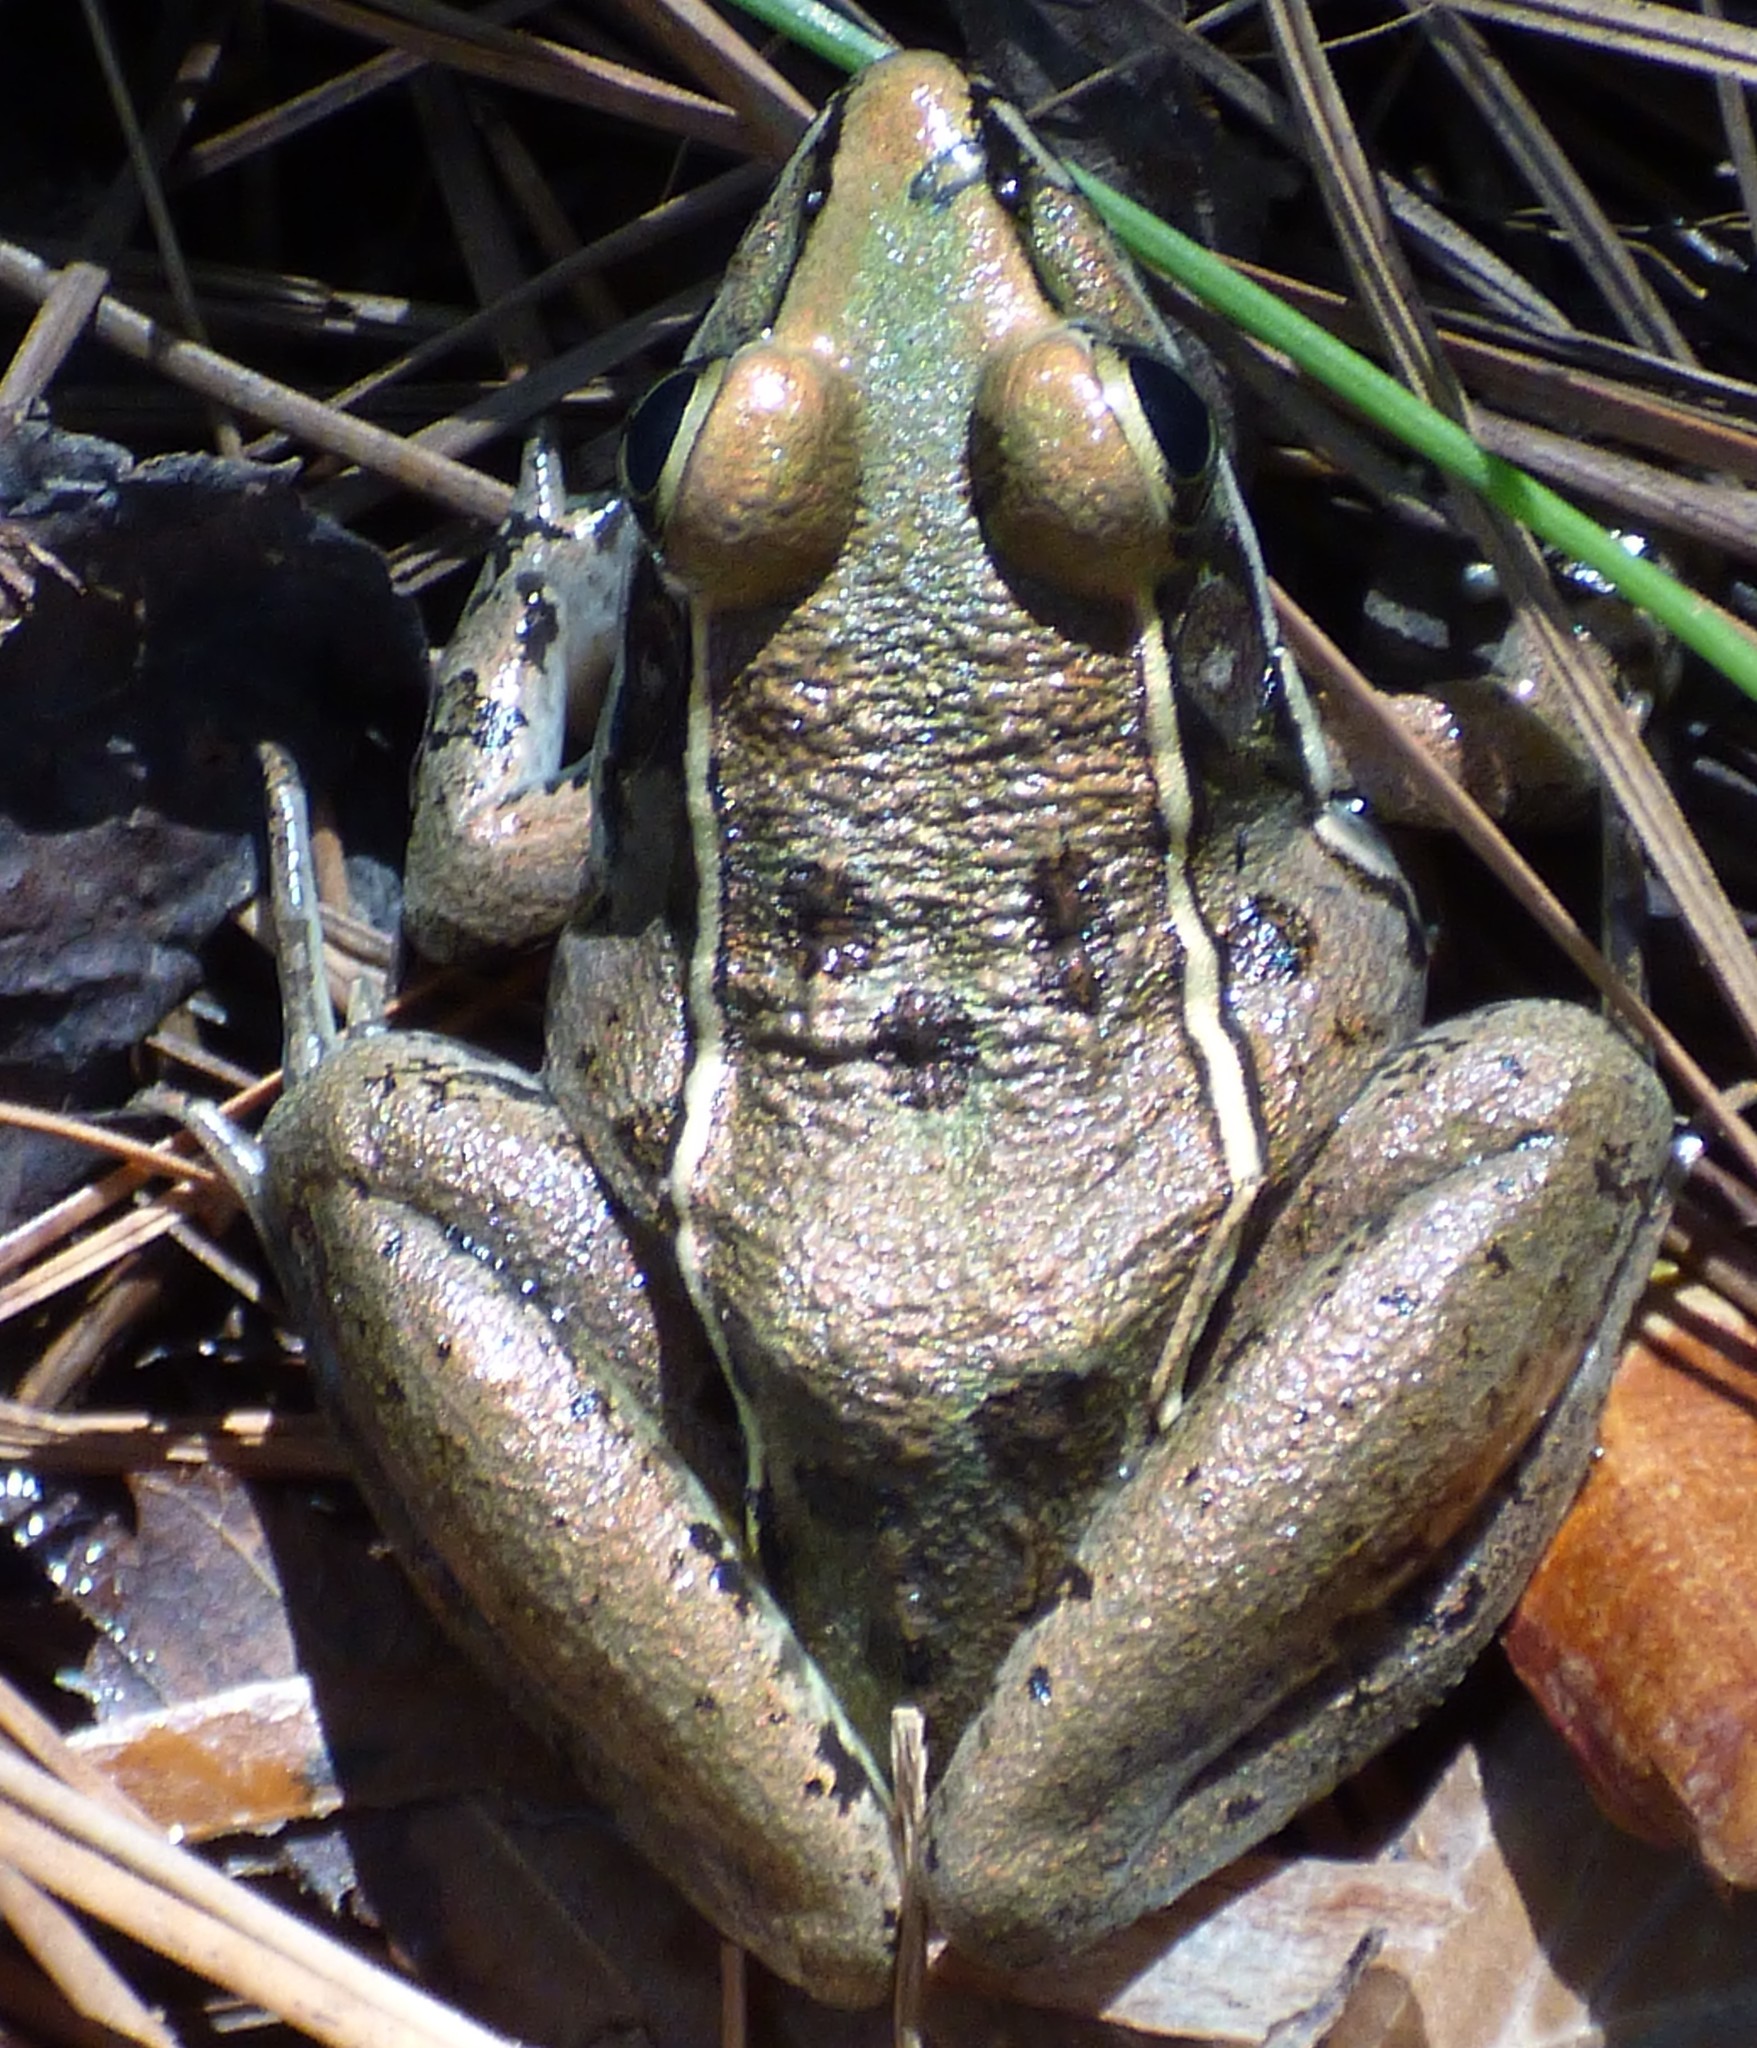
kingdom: Animalia
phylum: Chordata
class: Amphibia
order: Anura
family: Ranidae
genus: Lithobates
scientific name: Lithobates sphenocephalus
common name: Southern leopard frog
